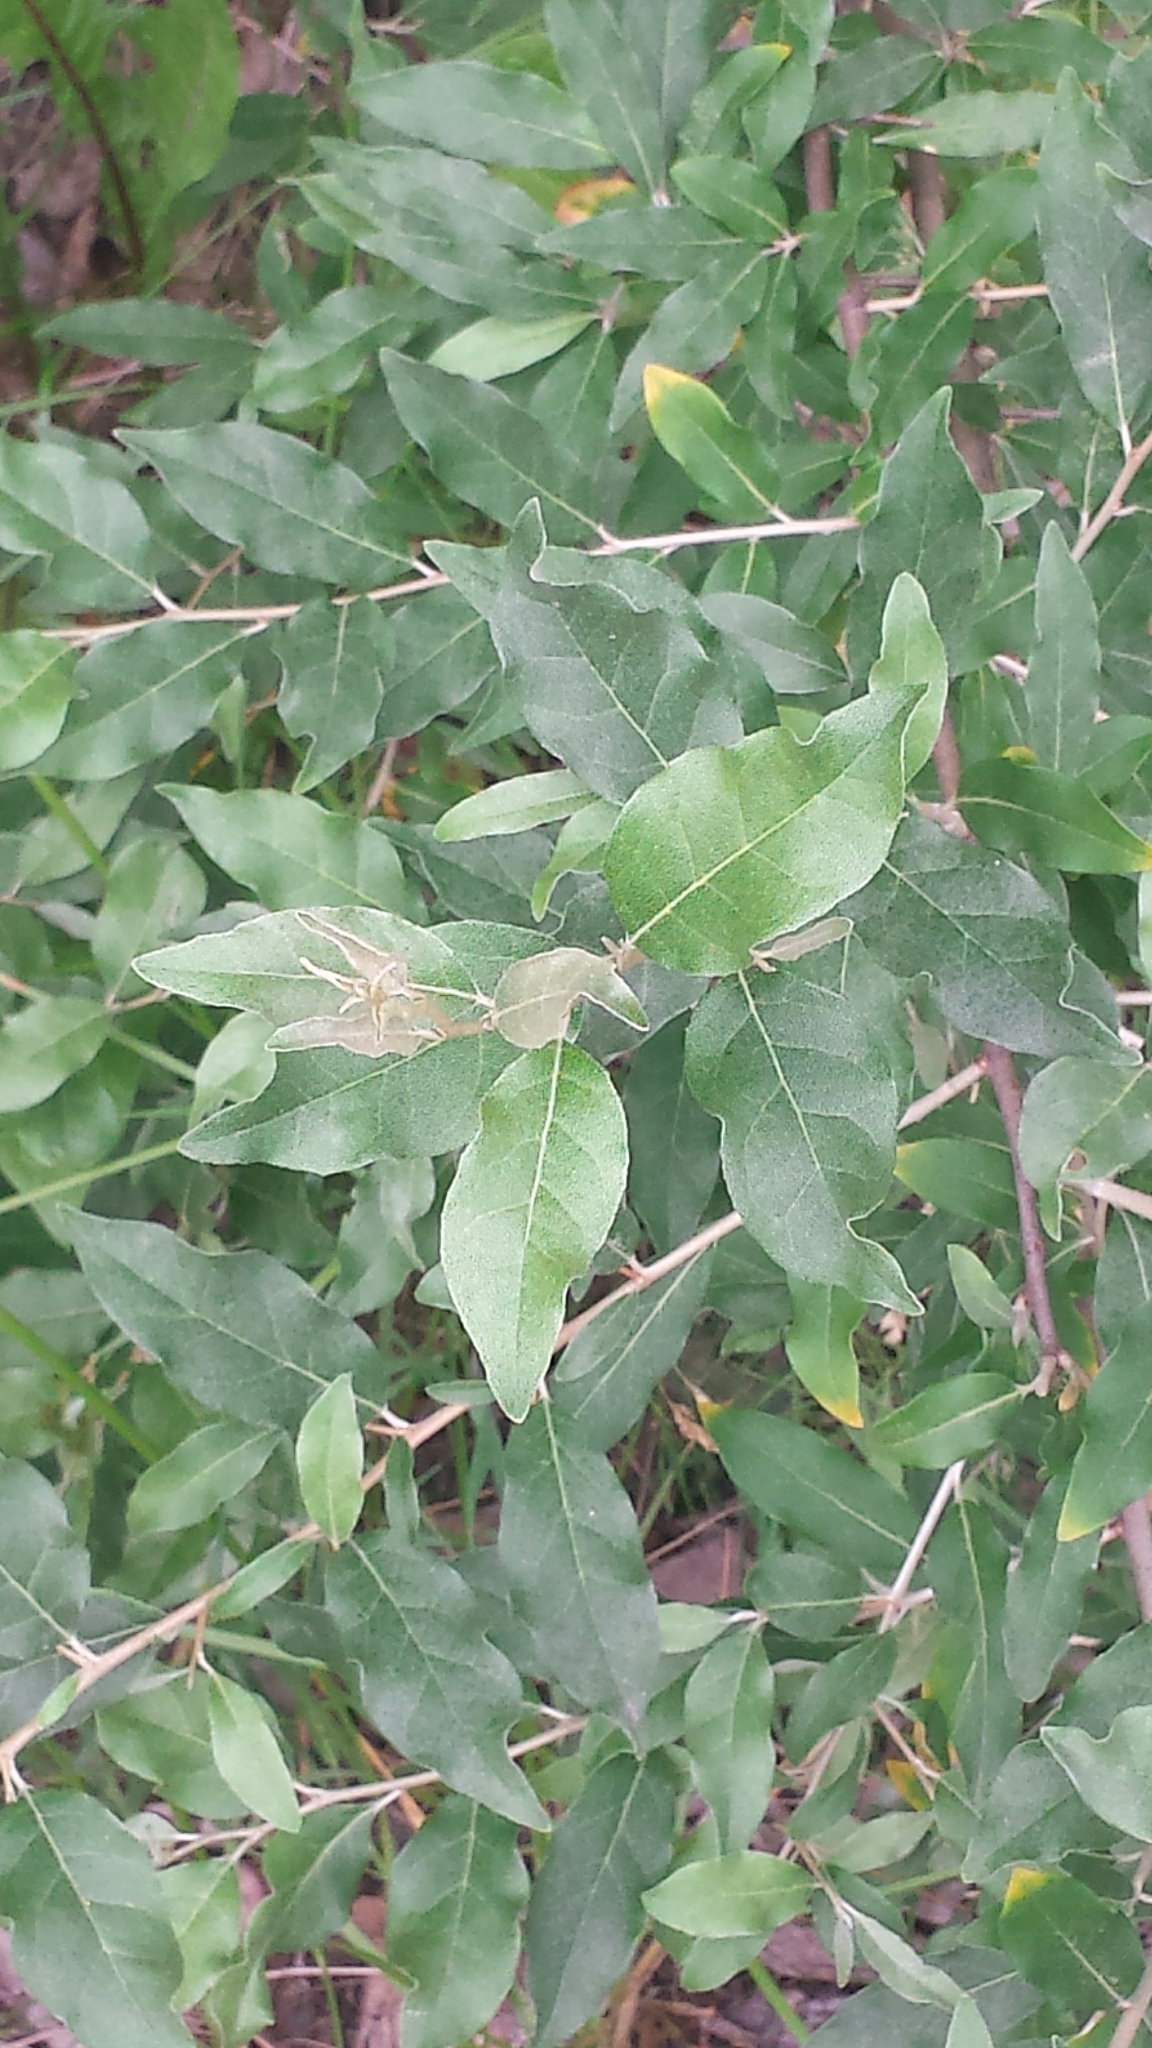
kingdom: Plantae
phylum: Tracheophyta
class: Magnoliopsida
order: Rosales
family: Elaeagnaceae
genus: Elaeagnus
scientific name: Elaeagnus umbellata
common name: Autumn olive
